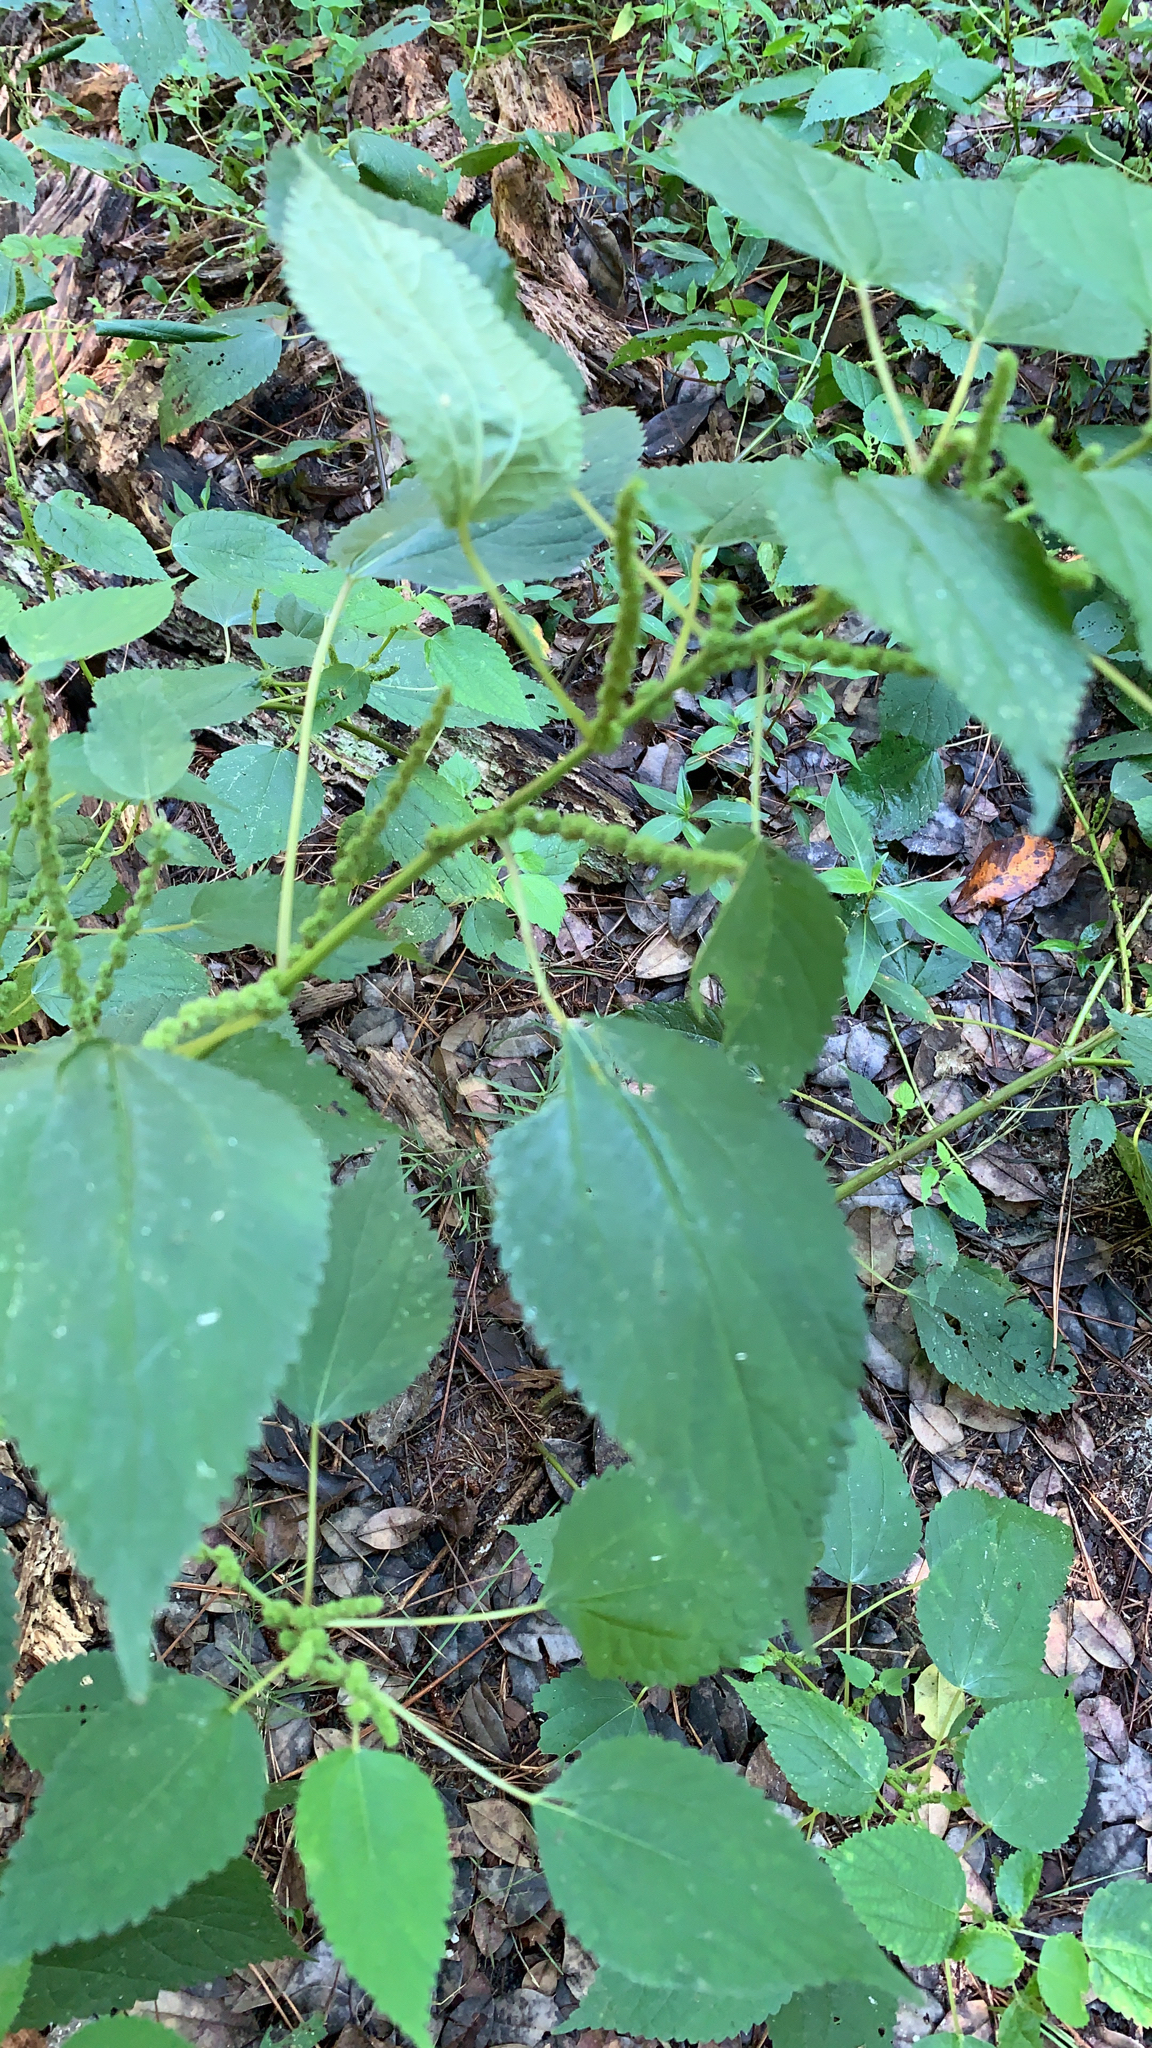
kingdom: Plantae
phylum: Tracheophyta
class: Magnoliopsida
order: Rosales
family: Urticaceae
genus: Boehmeria
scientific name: Boehmeria cylindrica
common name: Bog-hemp
